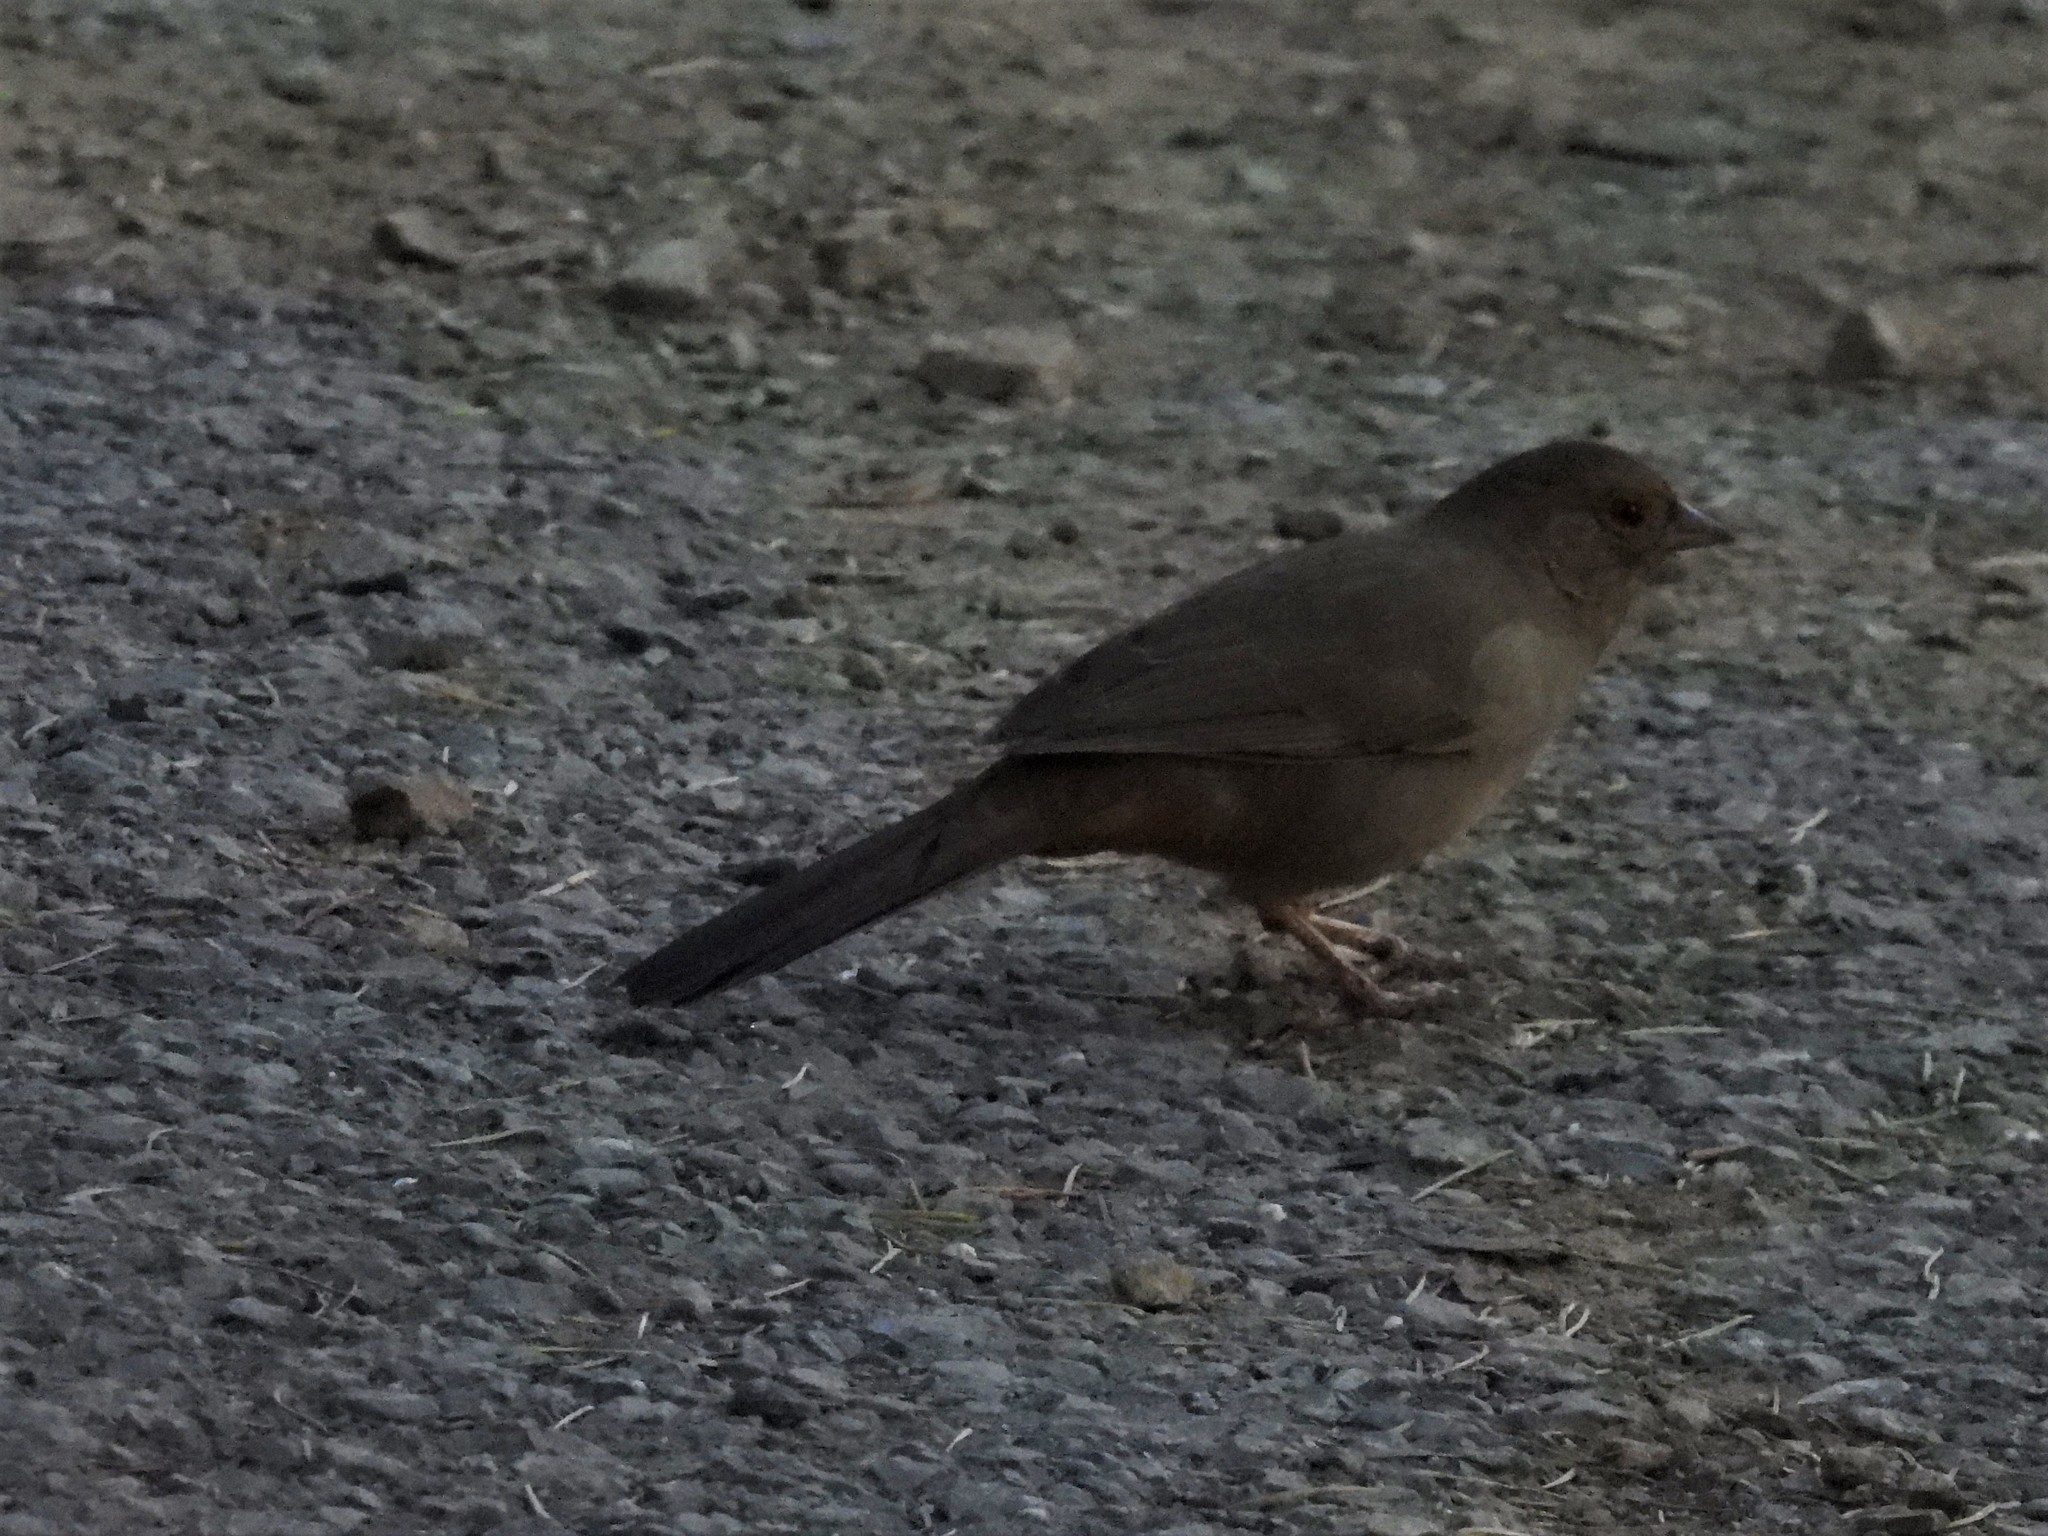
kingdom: Animalia
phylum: Chordata
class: Aves
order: Passeriformes
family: Passerellidae
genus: Melozone
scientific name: Melozone crissalis
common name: California towhee
